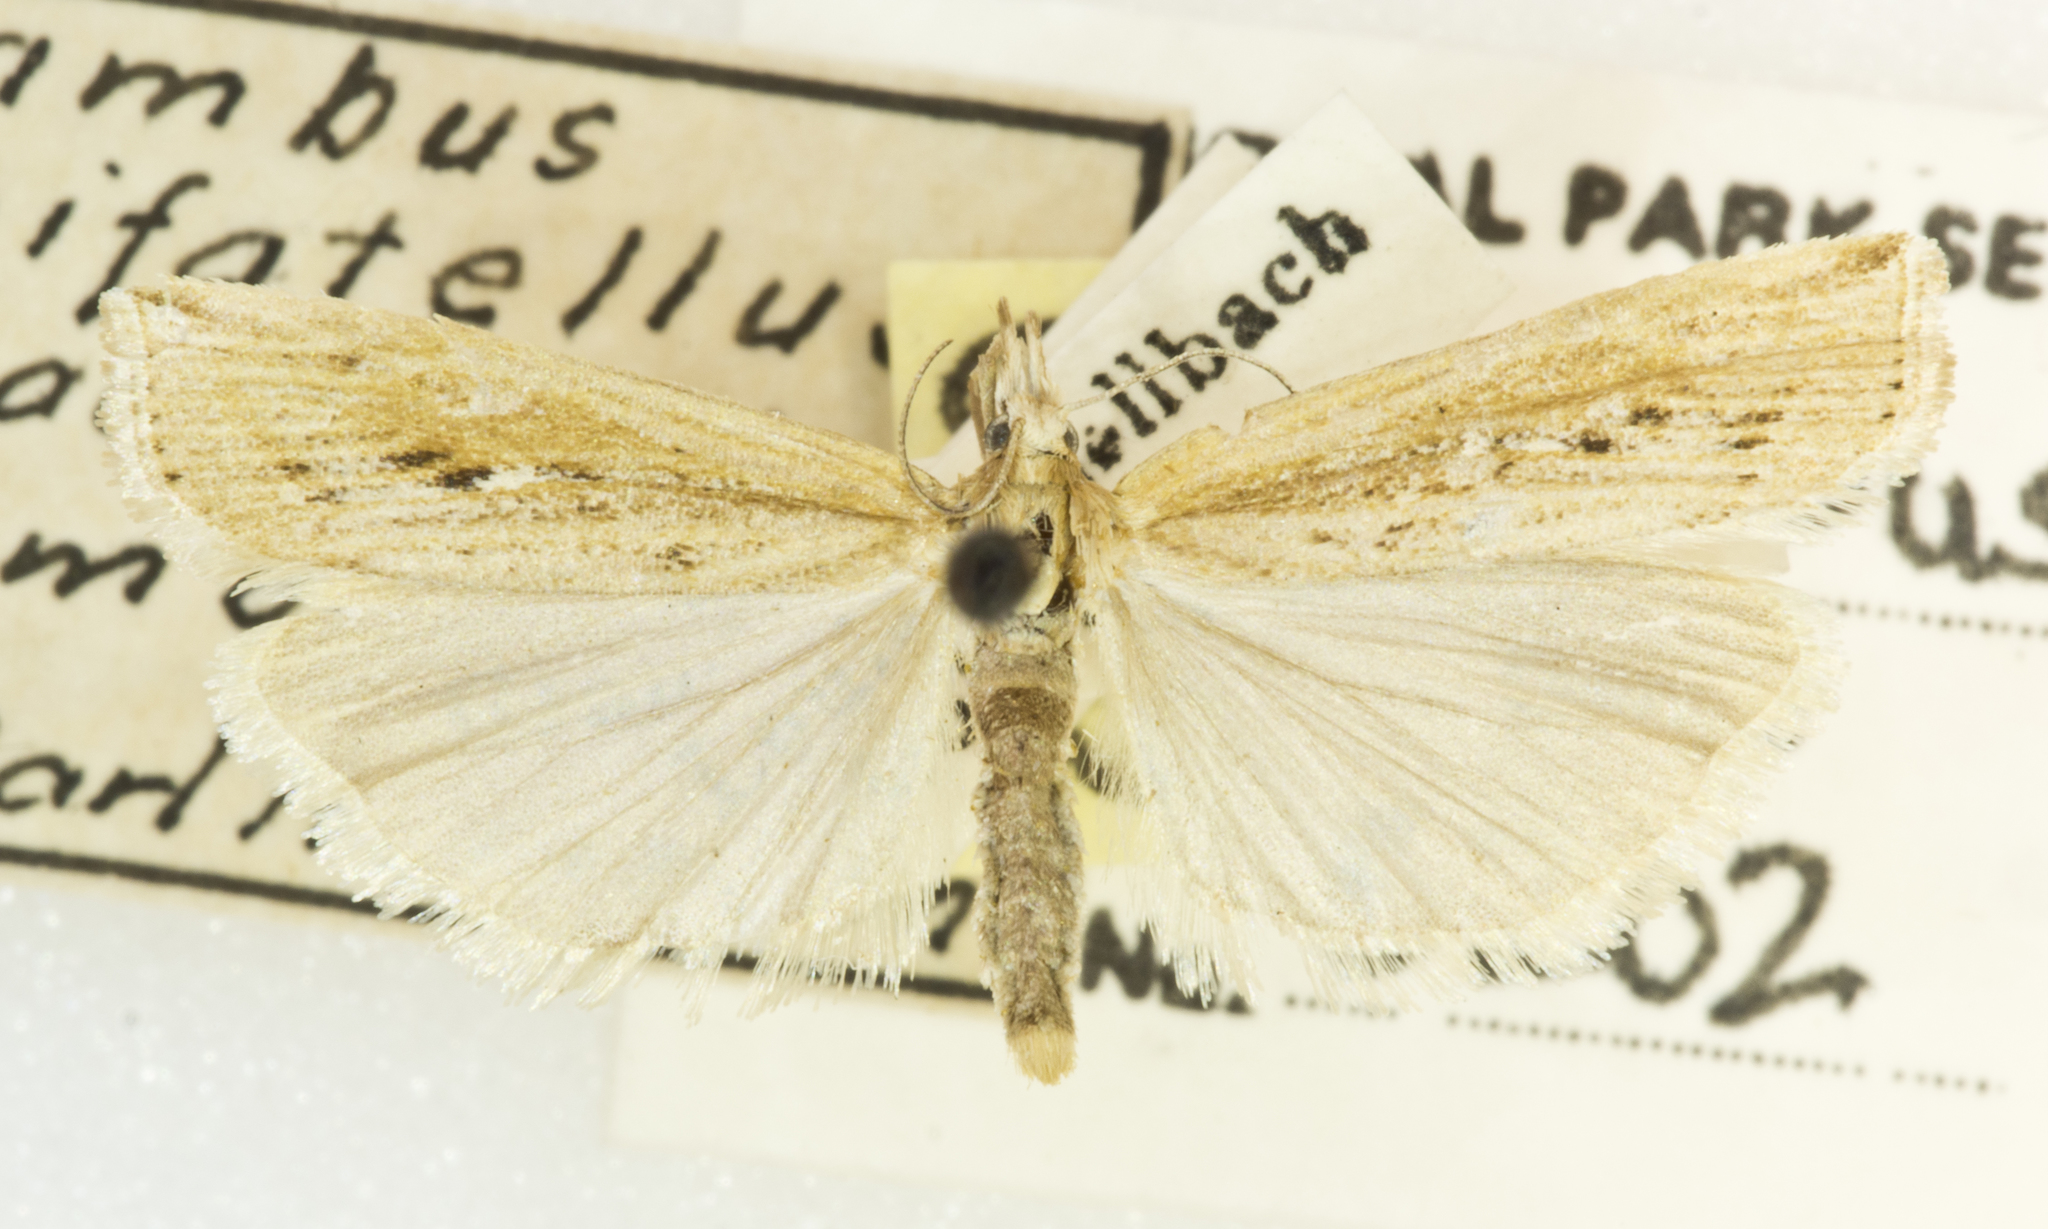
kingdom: Animalia
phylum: Arthropoda
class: Insecta
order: Lepidoptera
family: Crambidae
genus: Tehama
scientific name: Tehama bonifatellus
